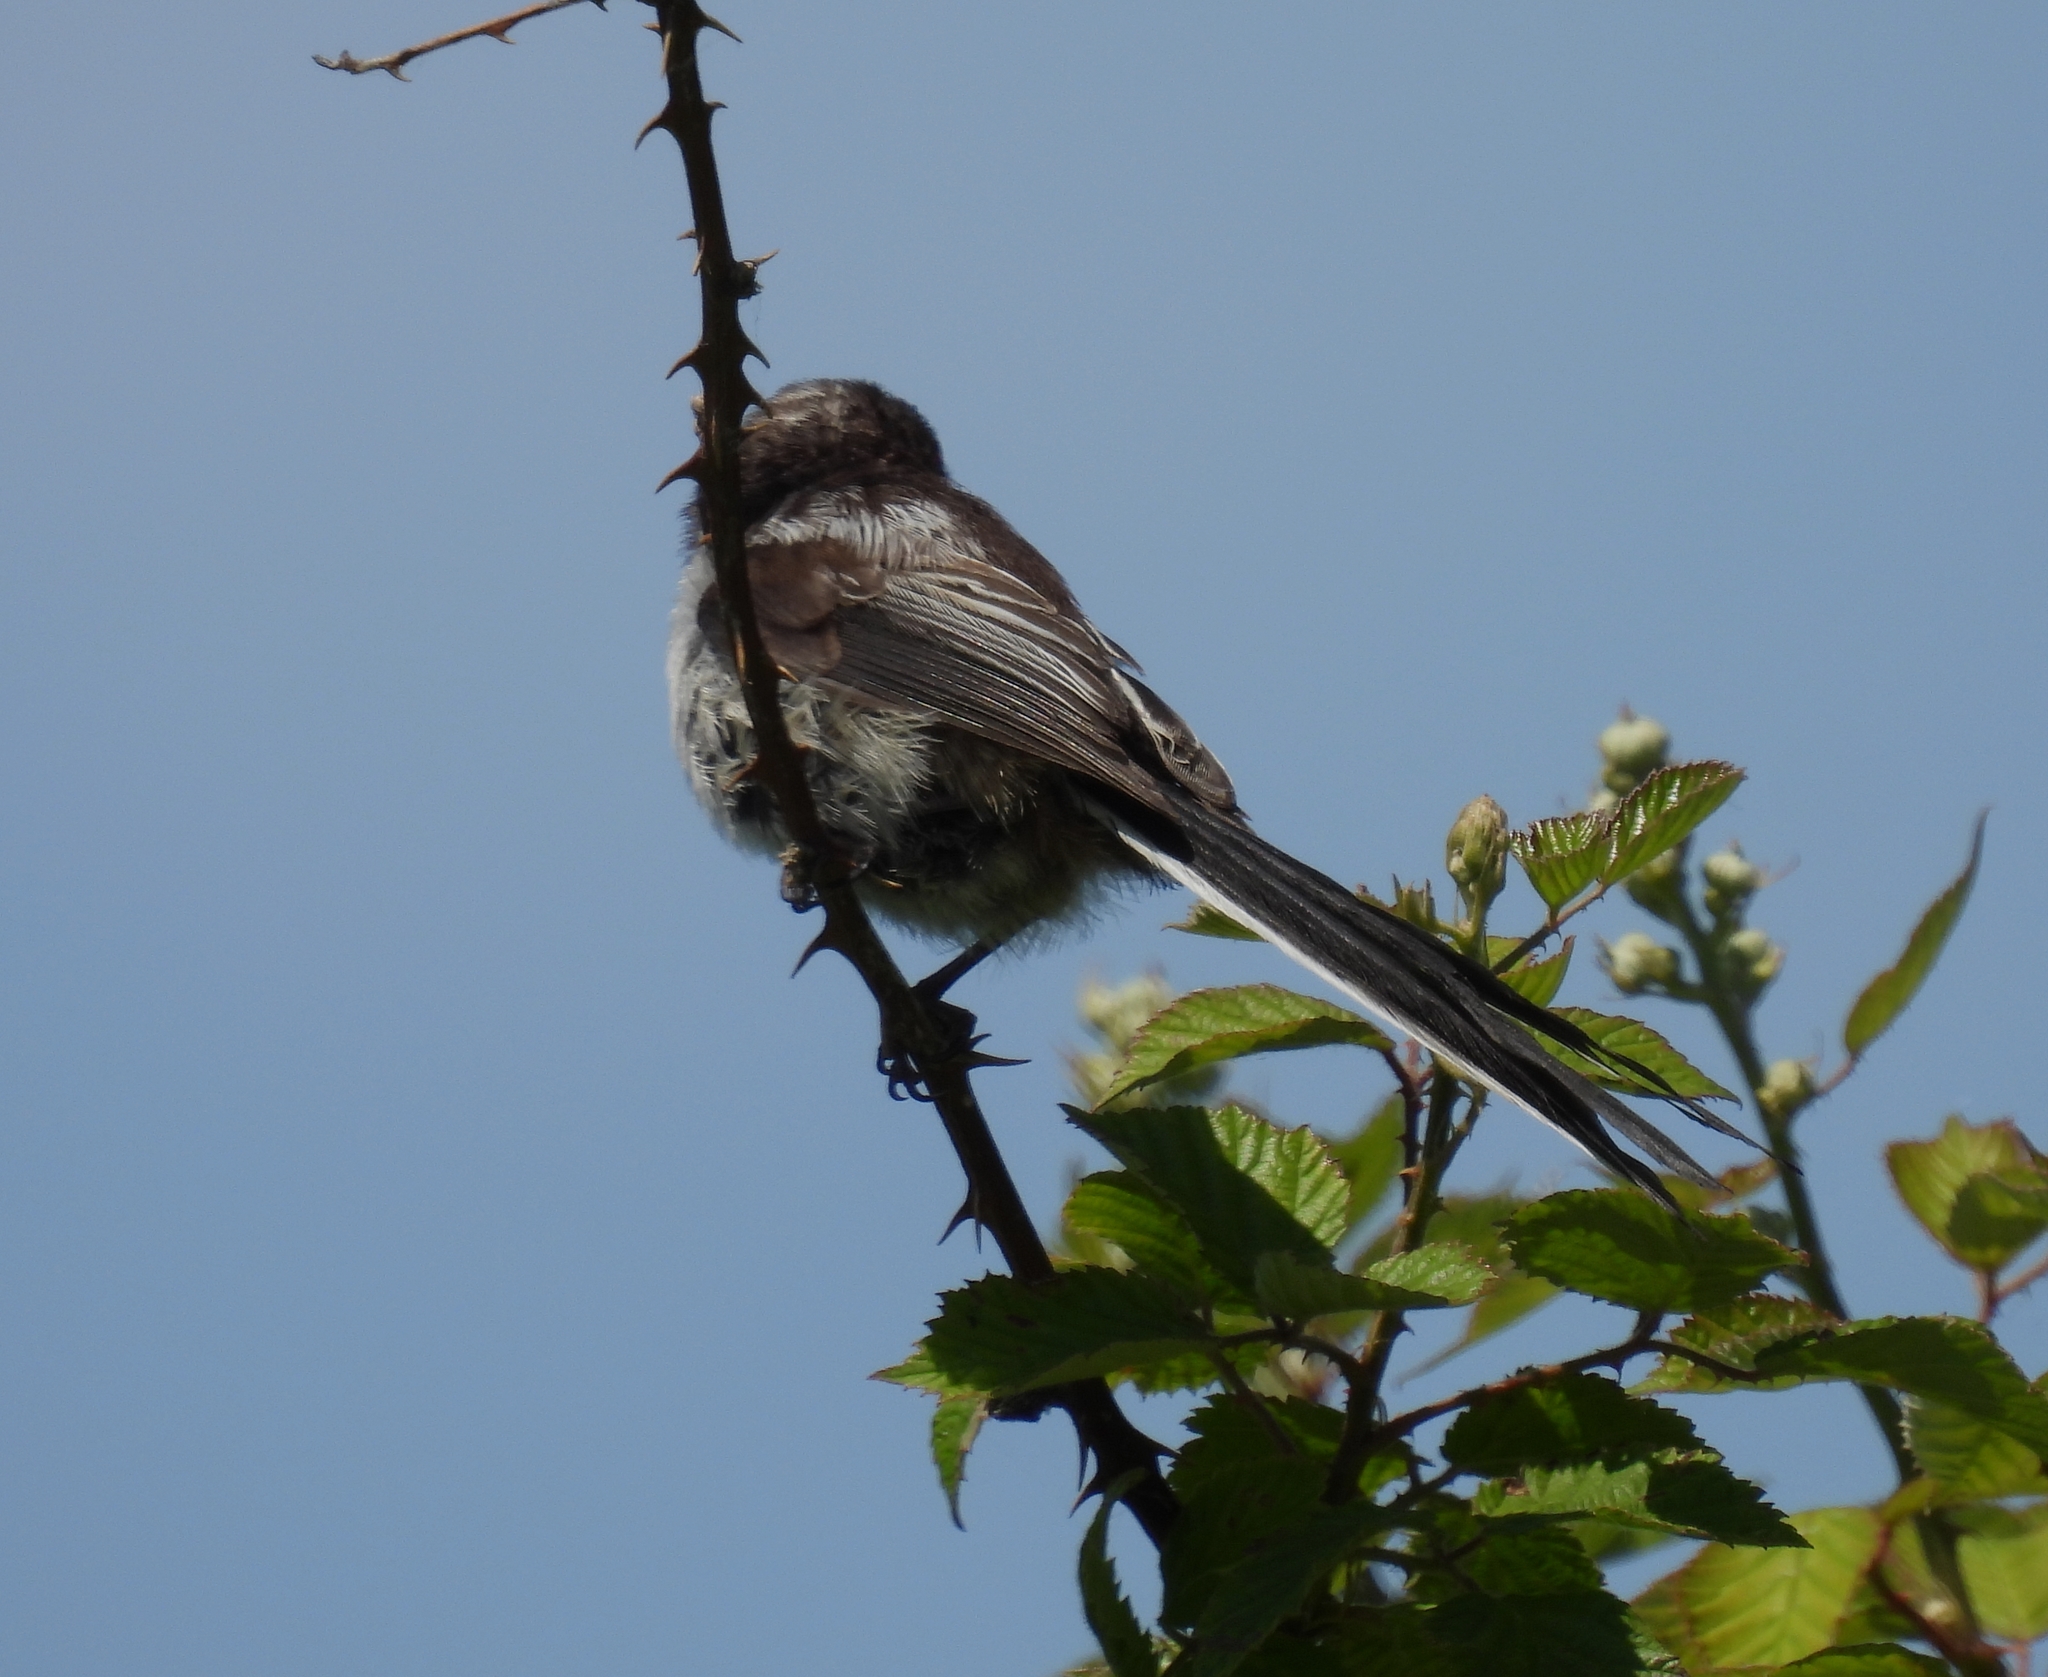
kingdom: Animalia
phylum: Chordata
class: Aves
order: Passeriformes
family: Aegithalidae
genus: Aegithalos
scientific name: Aegithalos caudatus
